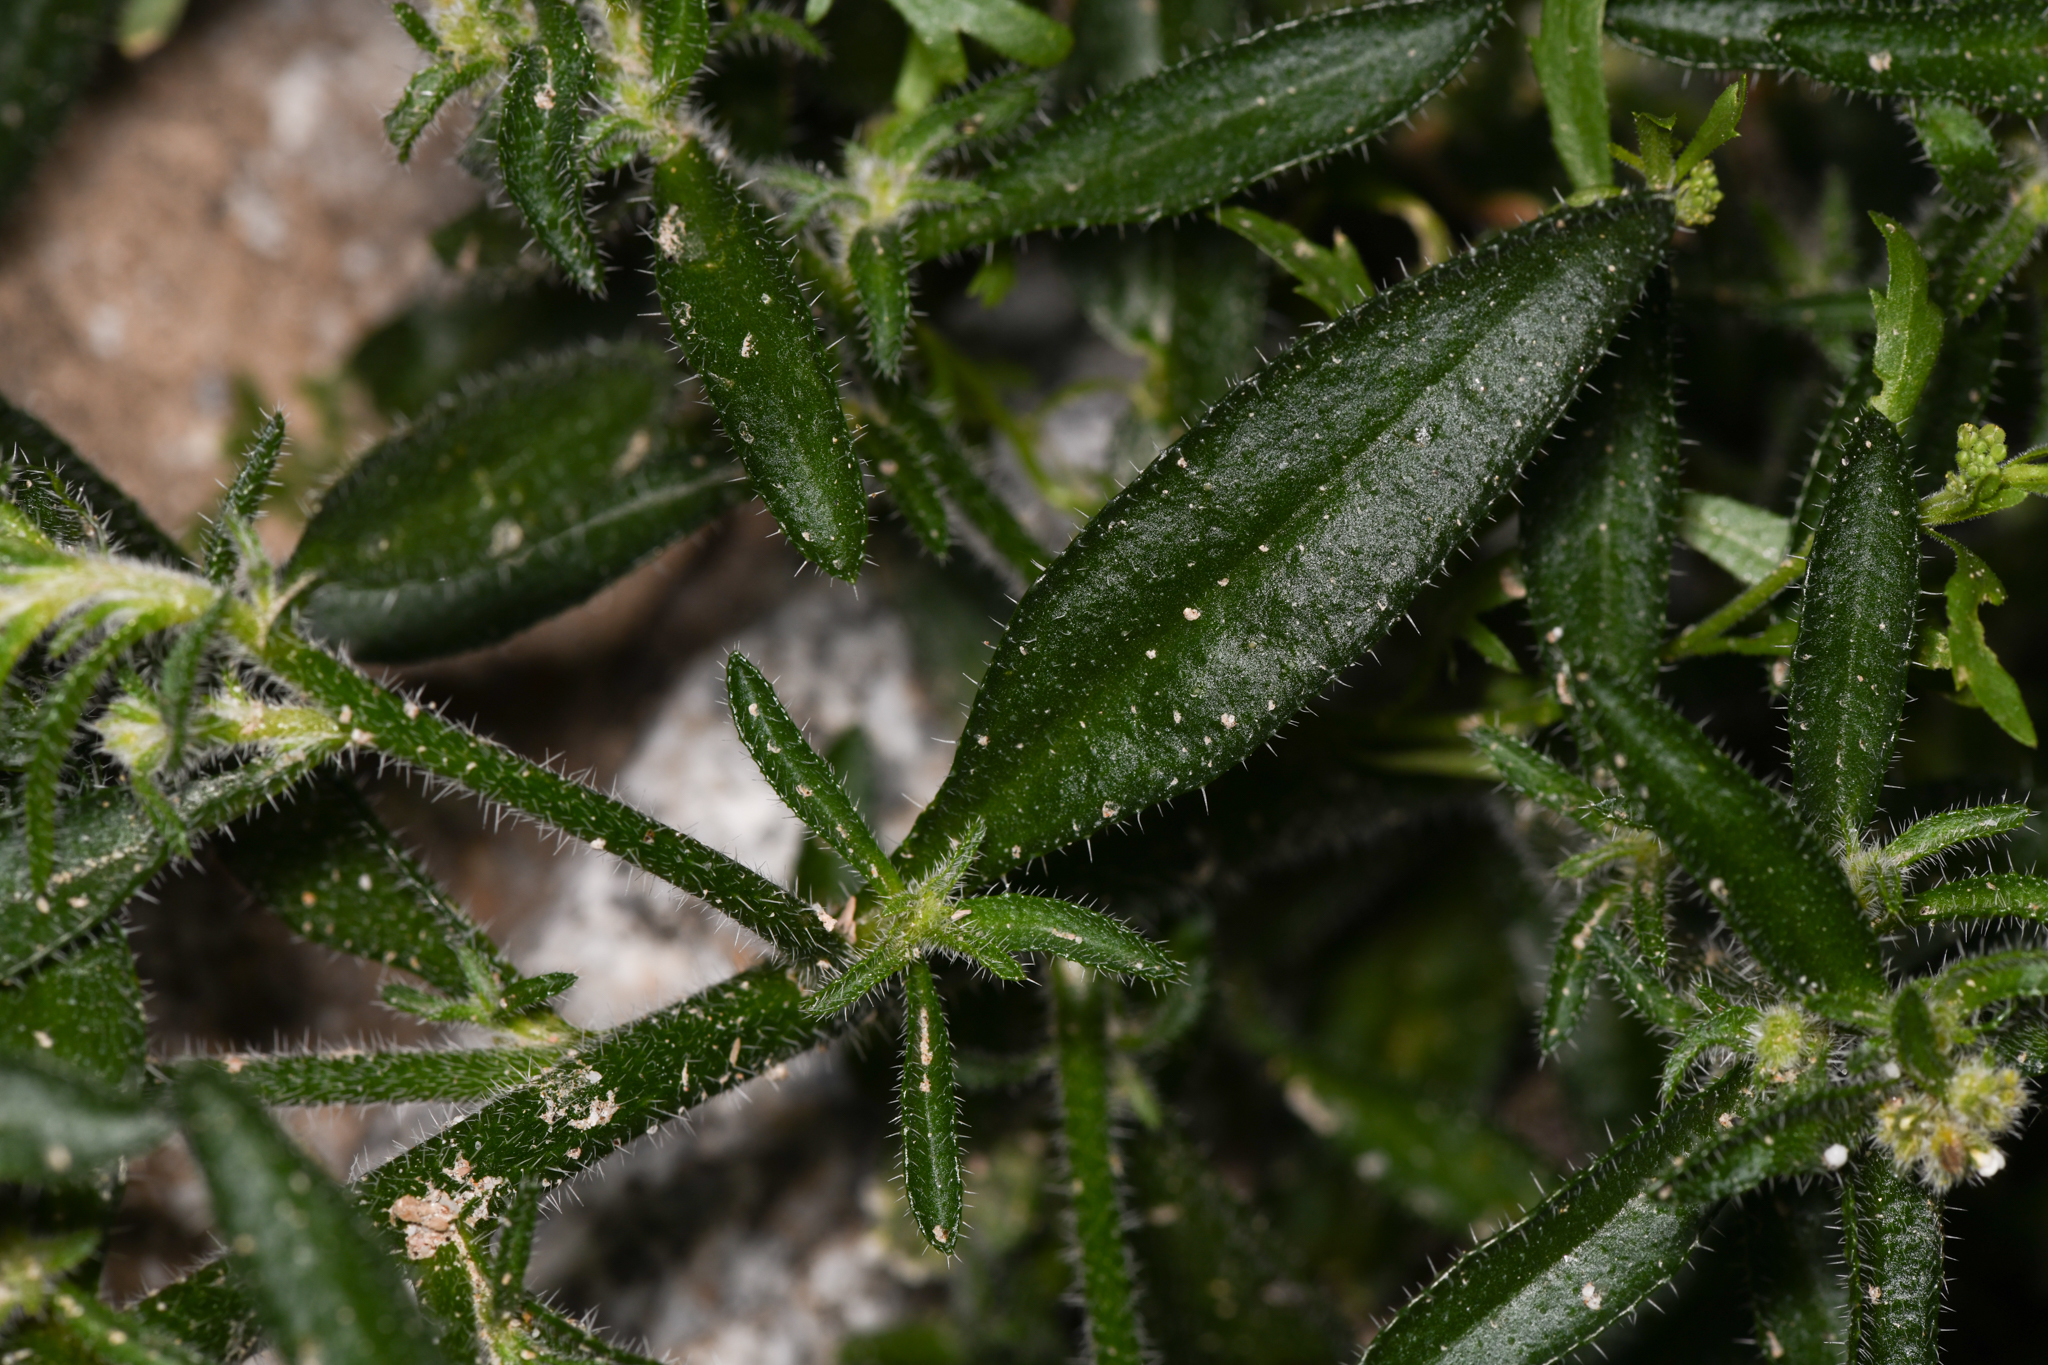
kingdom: Plantae
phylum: Tracheophyta
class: Magnoliopsida
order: Boraginales
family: Boraginaceae
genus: Johnstonella
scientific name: Johnstonella holoptera
